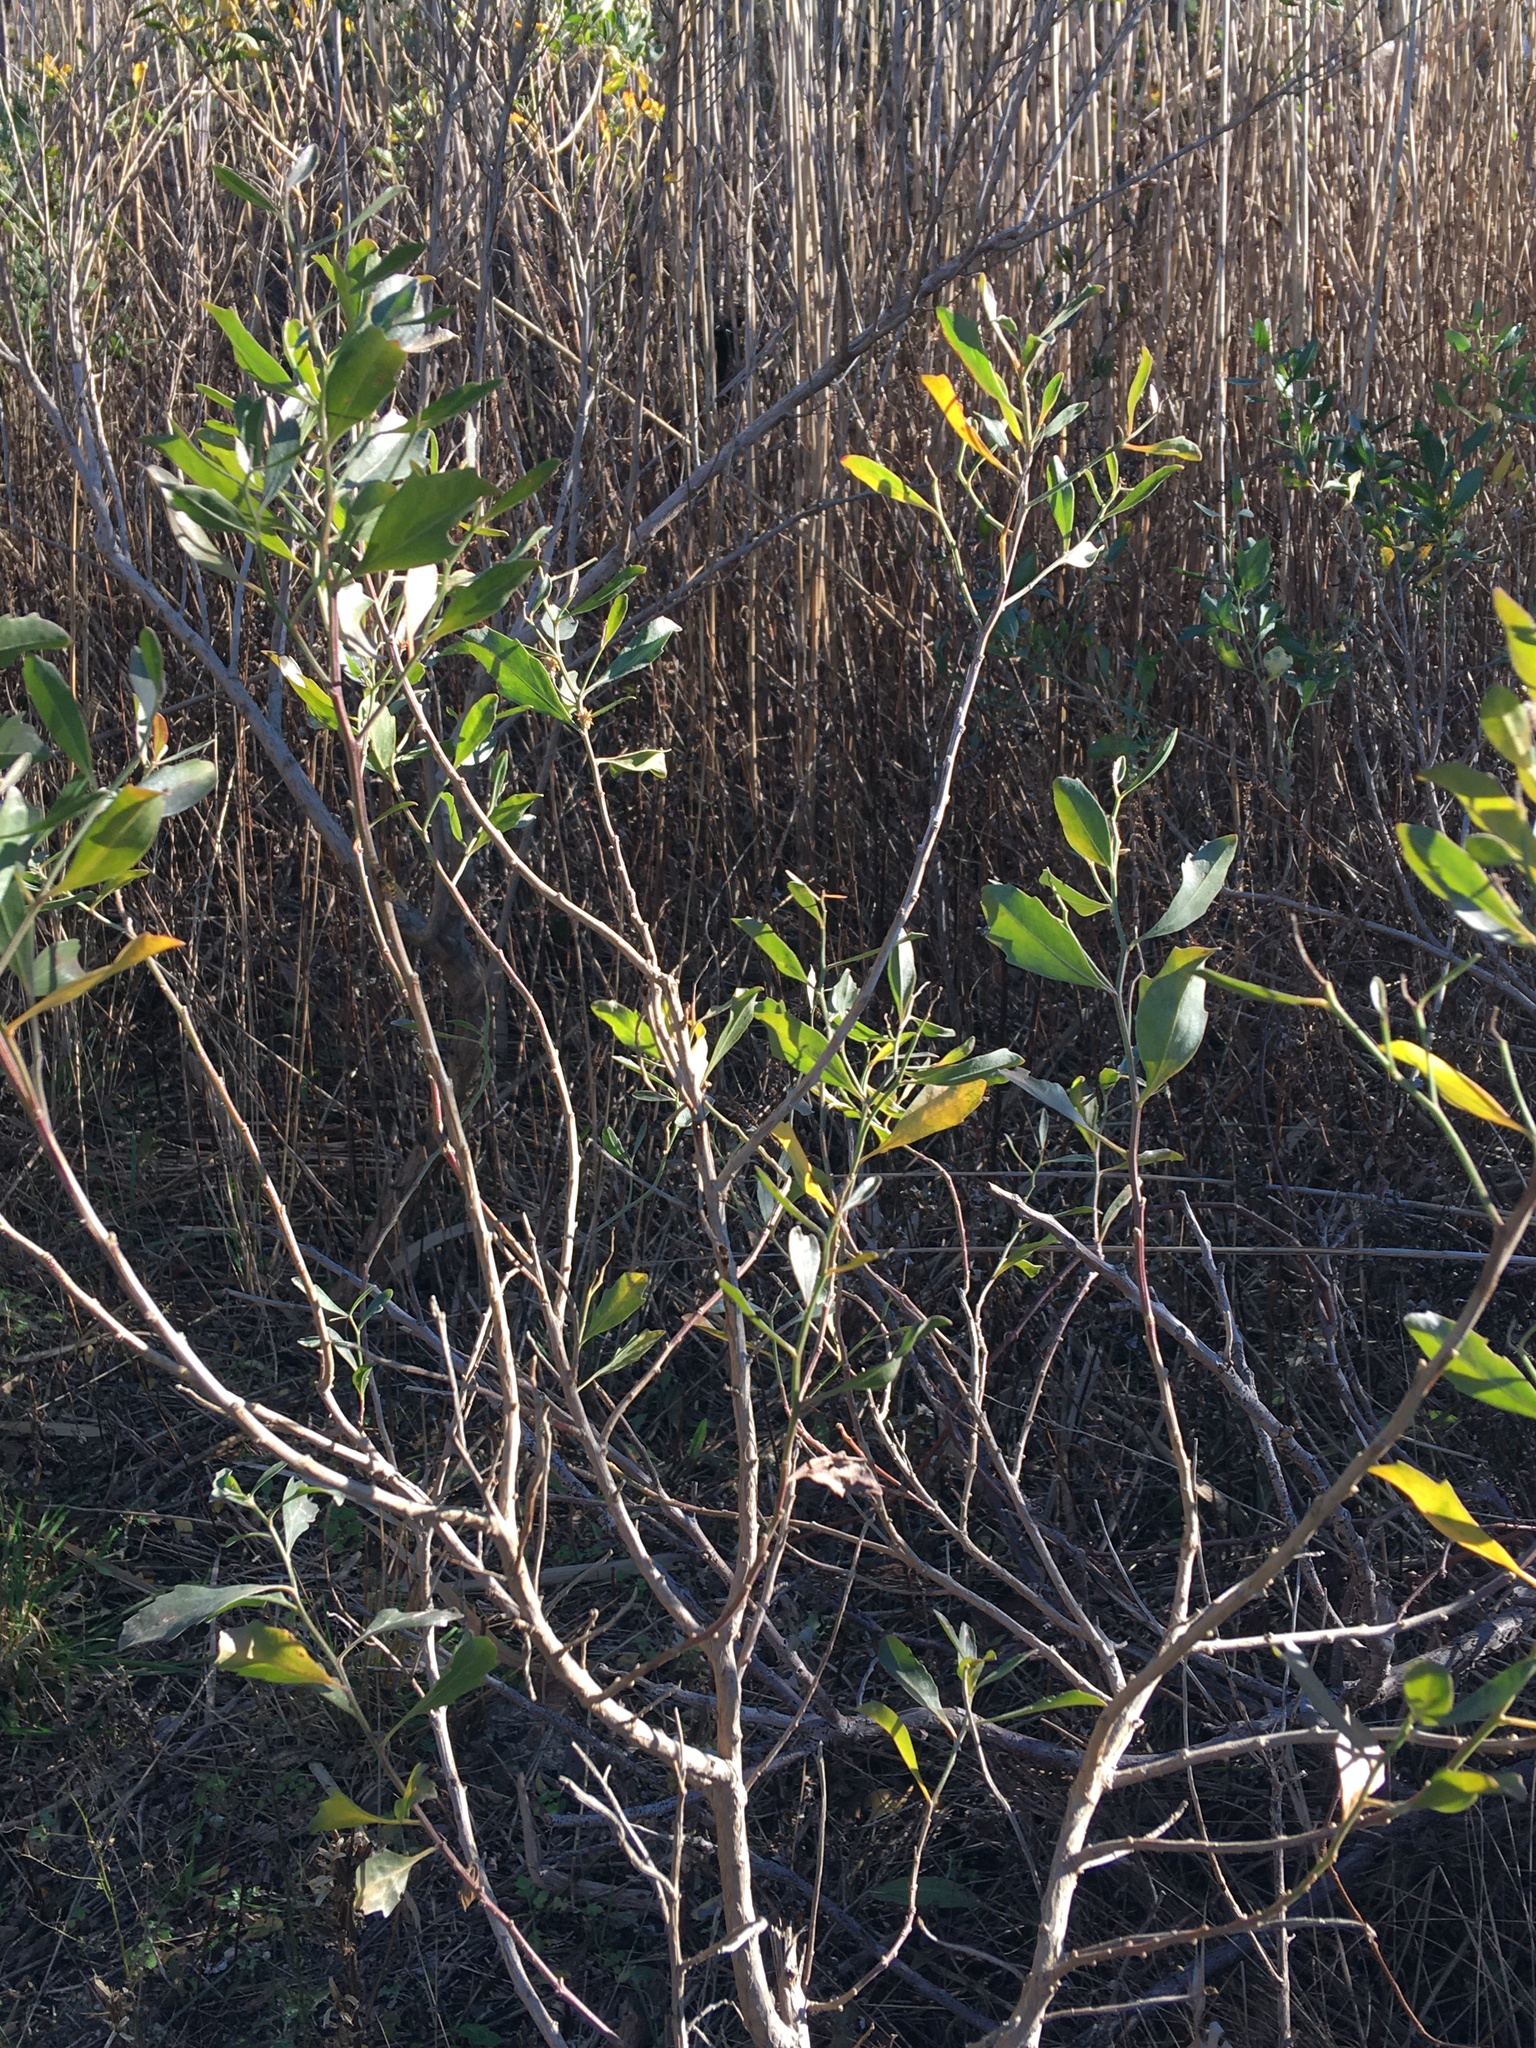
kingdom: Plantae
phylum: Tracheophyta
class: Magnoliopsida
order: Asterales
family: Asteraceae
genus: Baccharis
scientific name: Baccharis halimifolia
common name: Eastern baccharis
